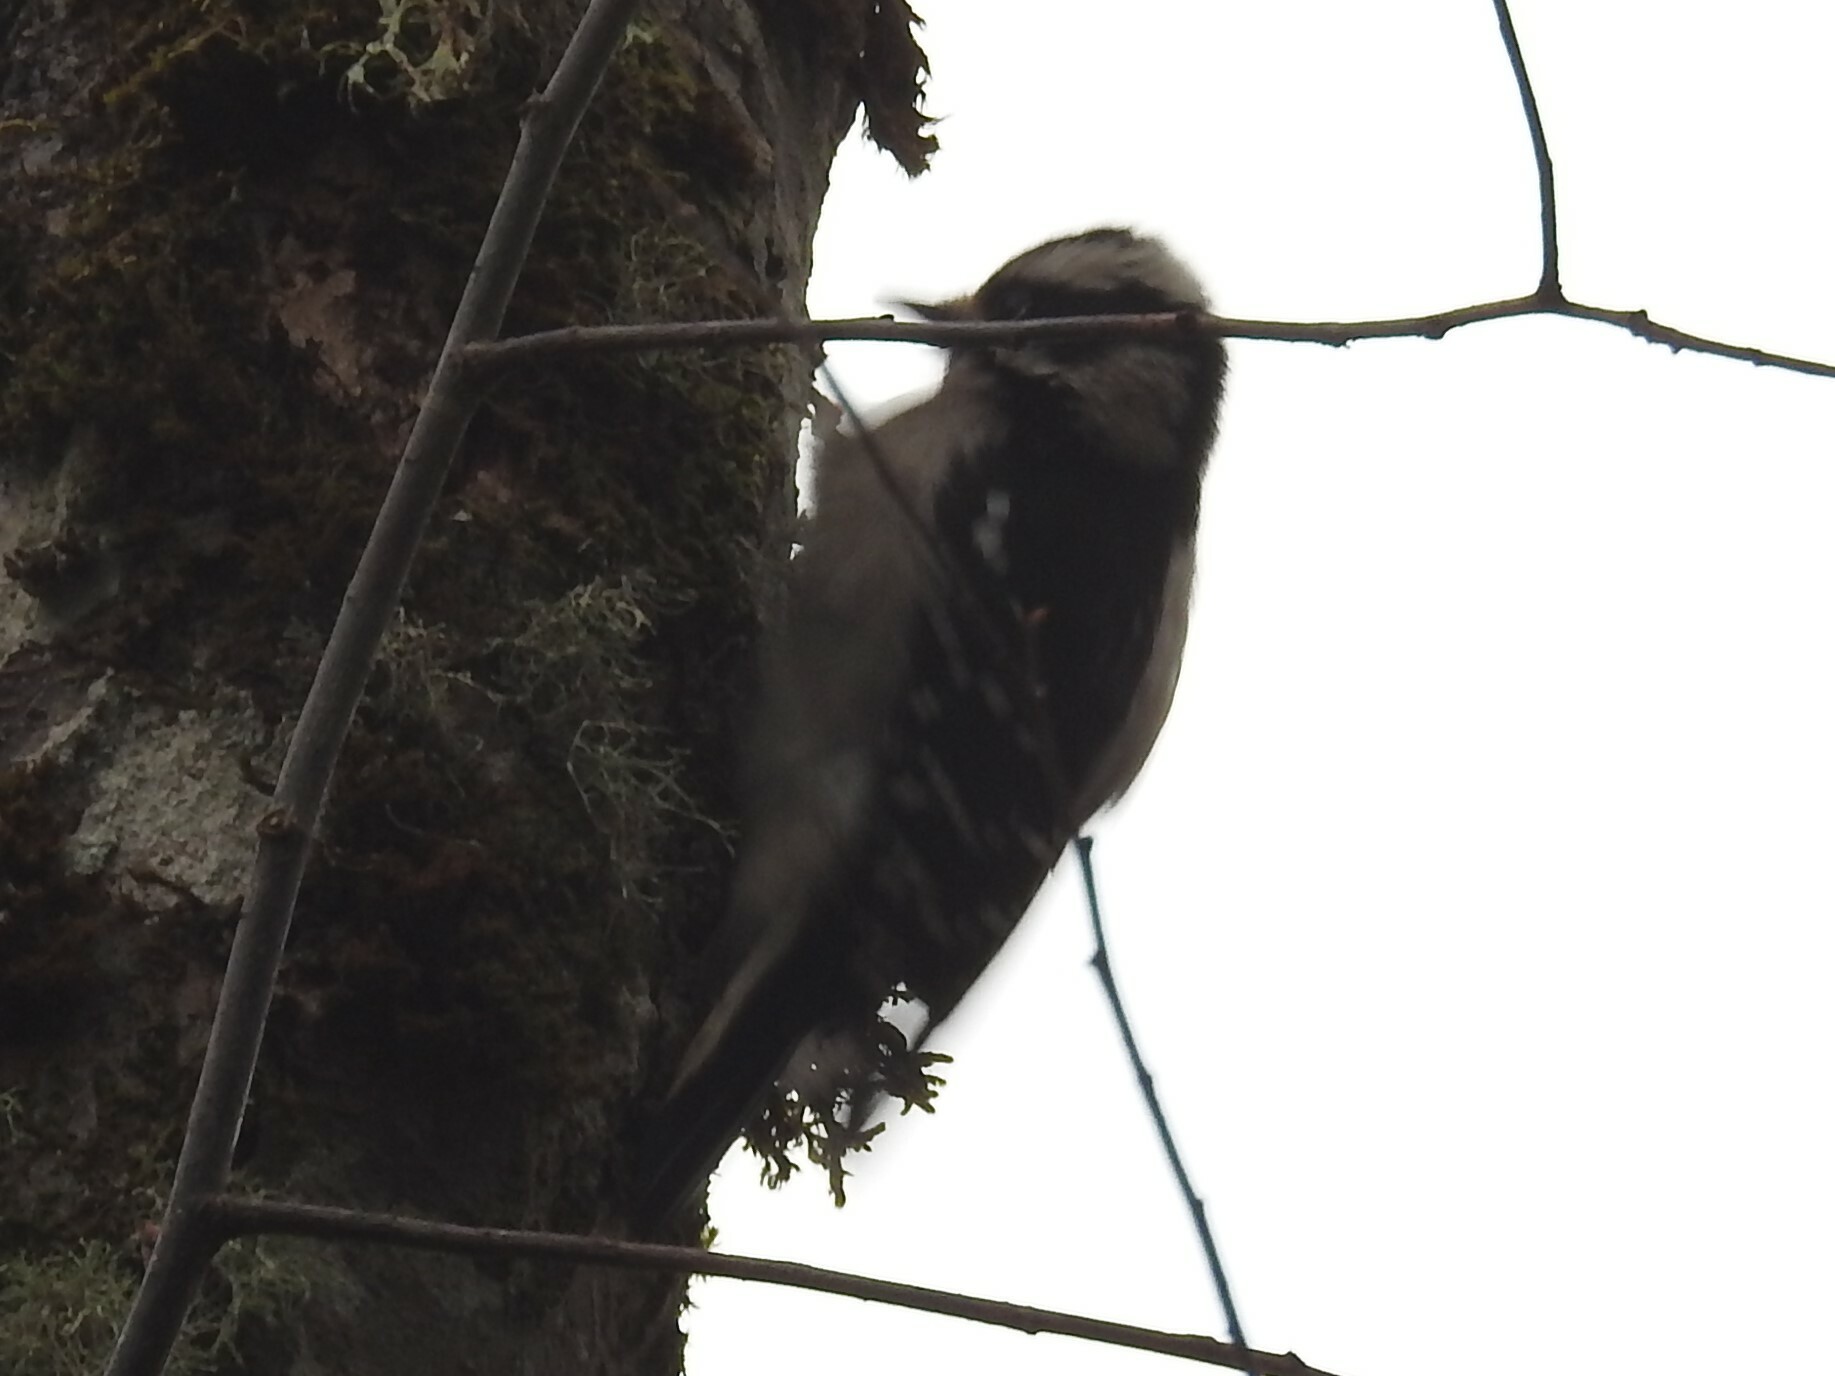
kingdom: Animalia
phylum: Chordata
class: Aves
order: Piciformes
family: Picidae
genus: Dryobates
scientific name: Dryobates pubescens
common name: Downy woodpecker
